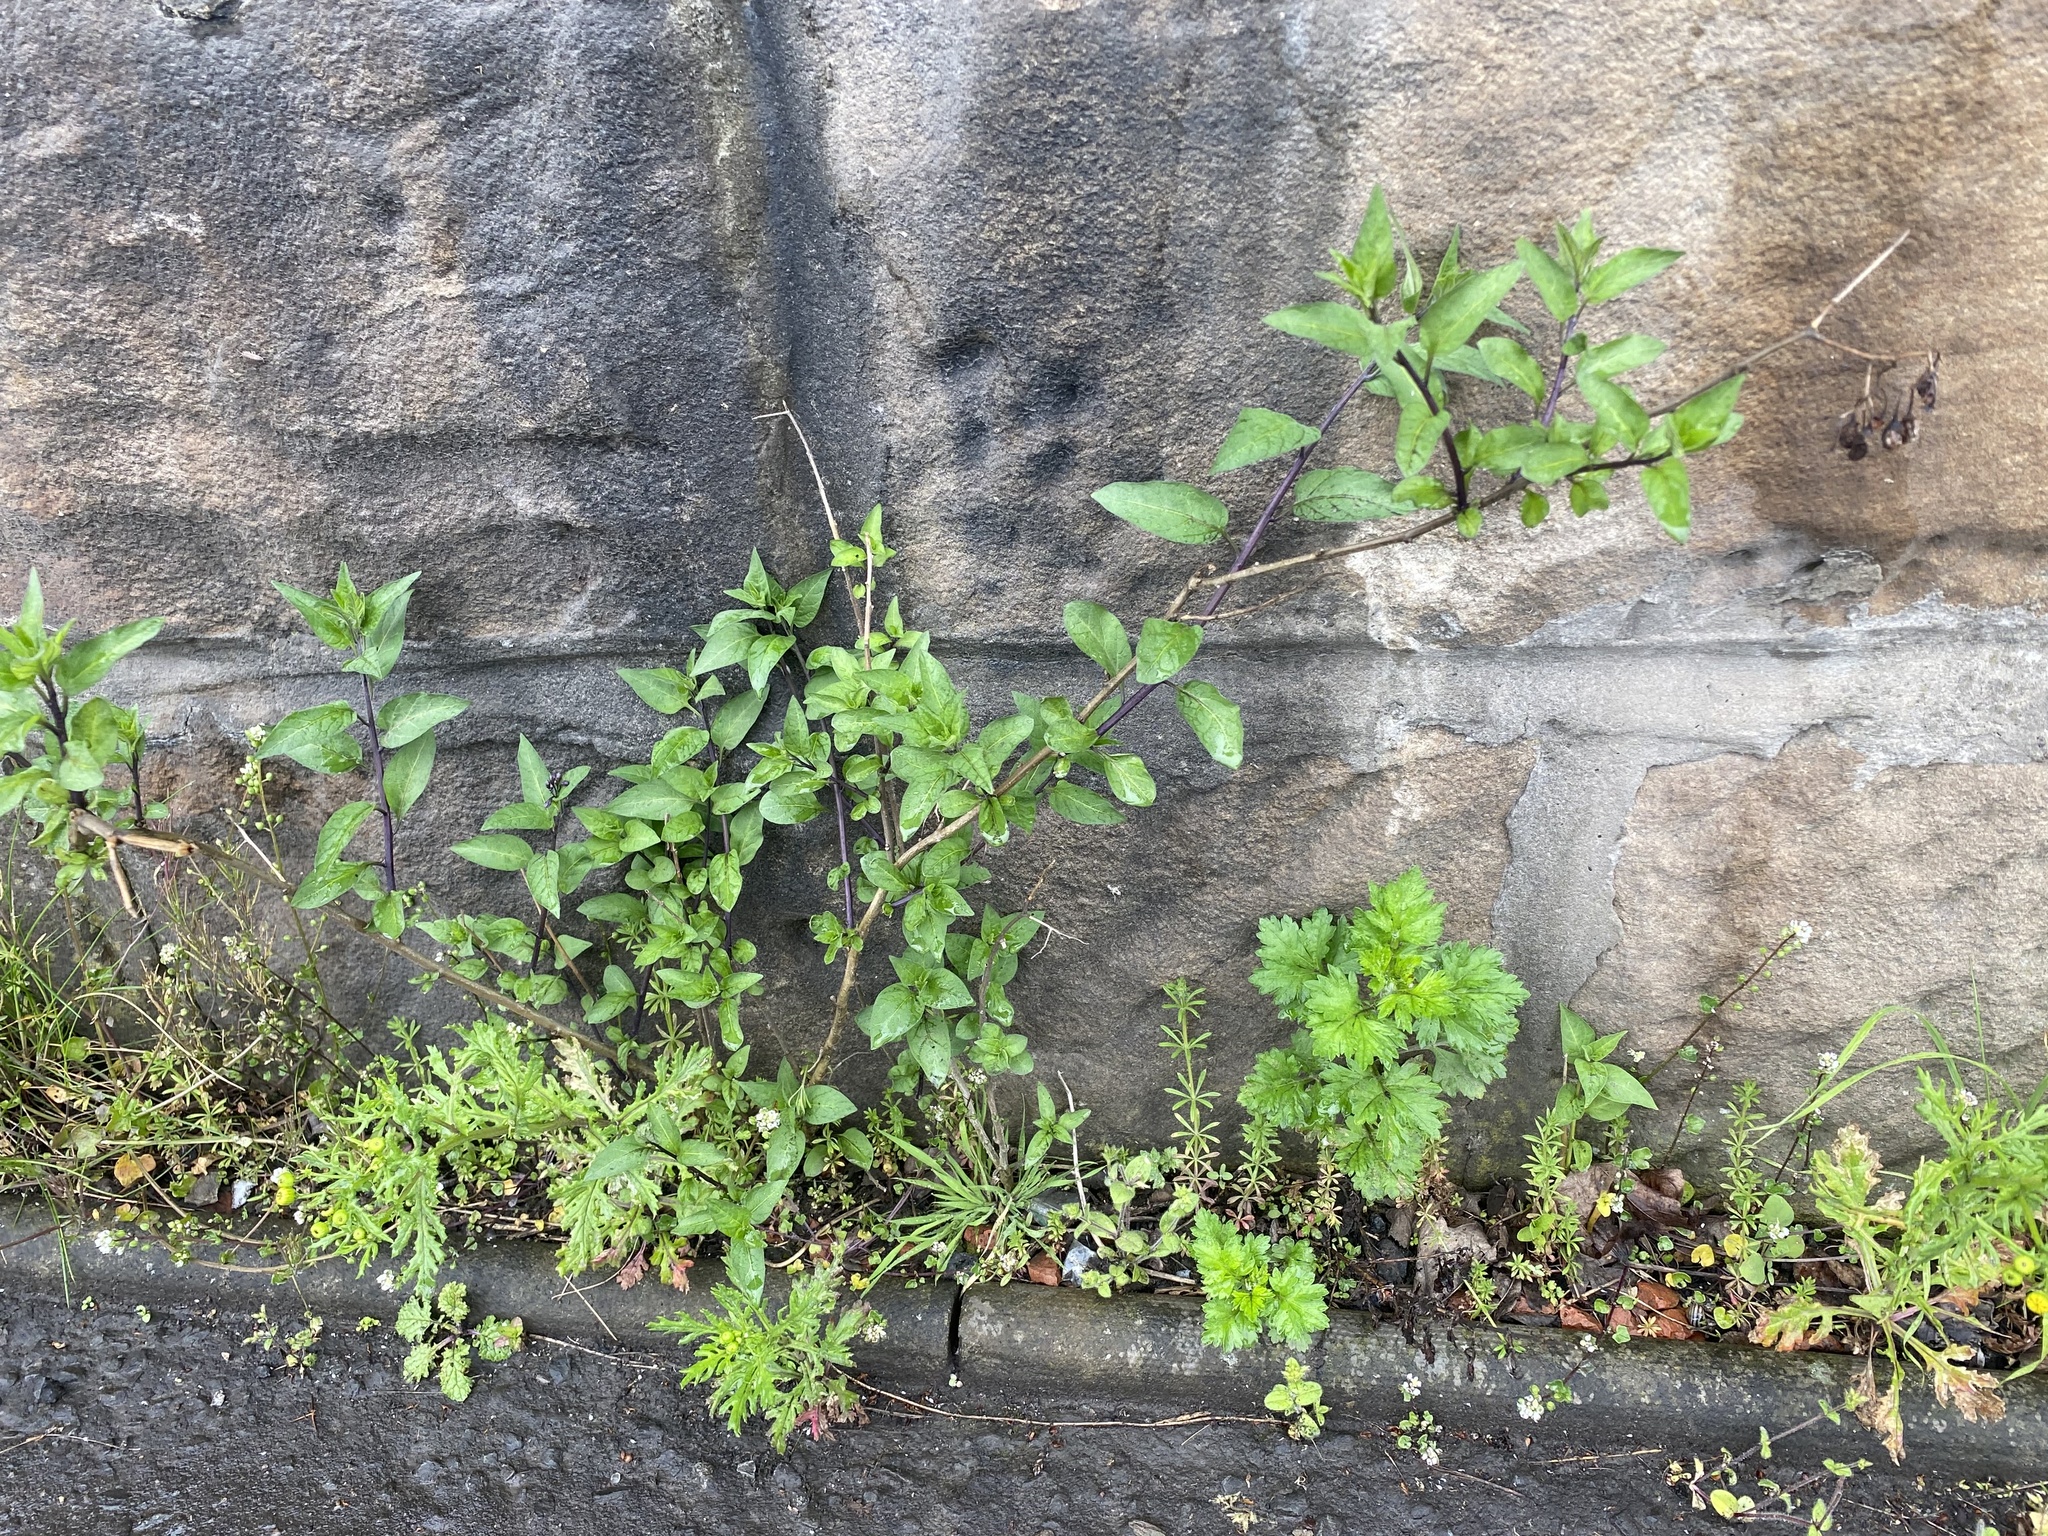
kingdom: Plantae
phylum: Tracheophyta
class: Magnoliopsida
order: Solanales
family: Solanaceae
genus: Solanum
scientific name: Solanum dulcamara
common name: Climbing nightshade
